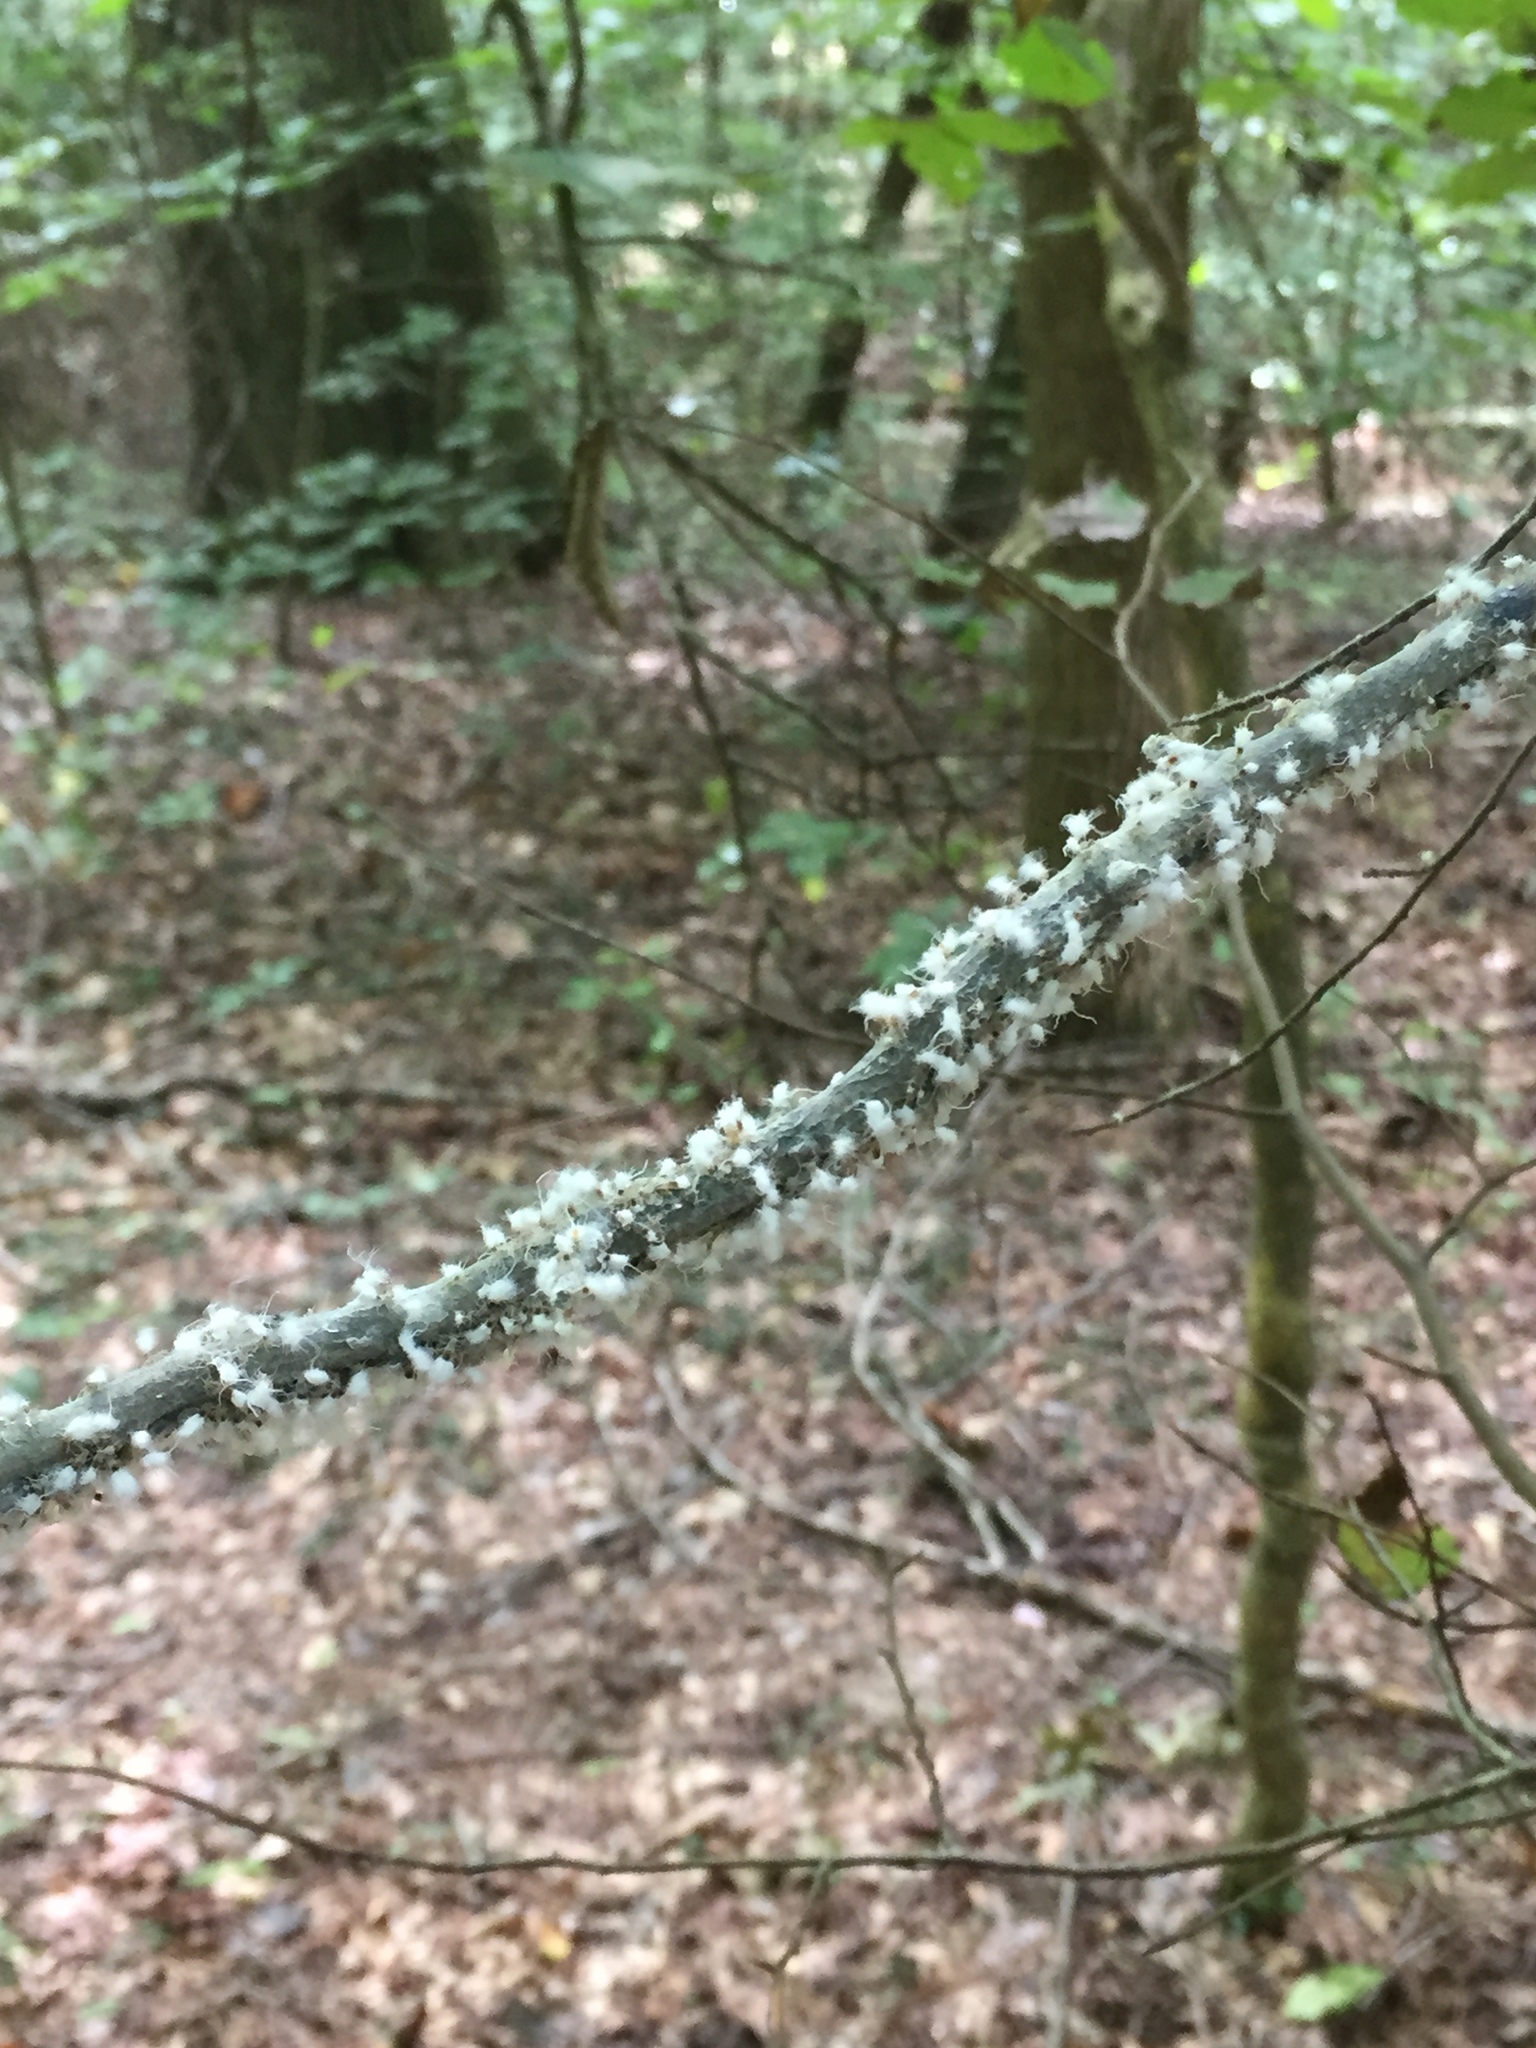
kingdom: Animalia
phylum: Arthropoda
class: Insecta
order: Hemiptera
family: Aphididae
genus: Grylloprociphilus
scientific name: Grylloprociphilus imbricator
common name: Beech blight aphid
